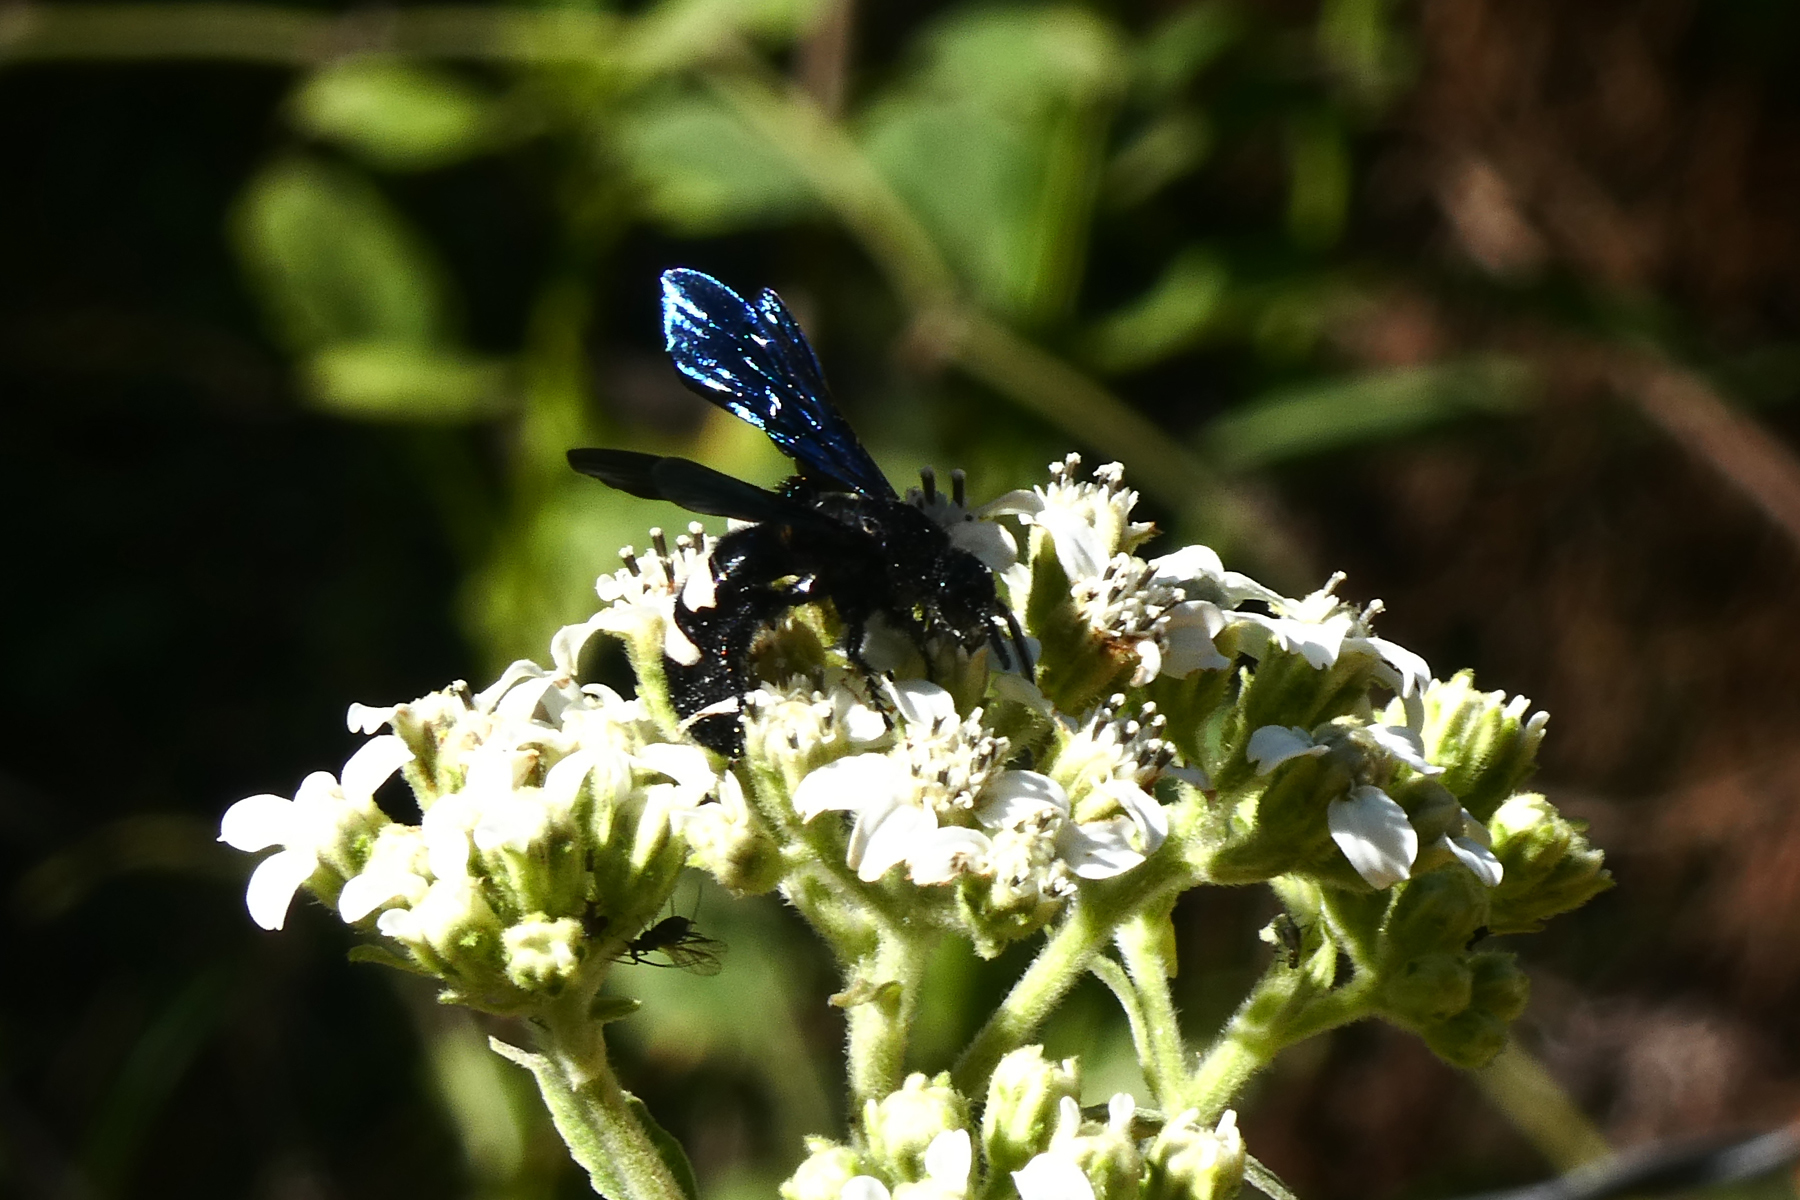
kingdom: Animalia
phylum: Arthropoda
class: Insecta
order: Hymenoptera
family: Scoliidae
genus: Scolia
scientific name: Scolia bicincta
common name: Double-banded scoliid wasp
